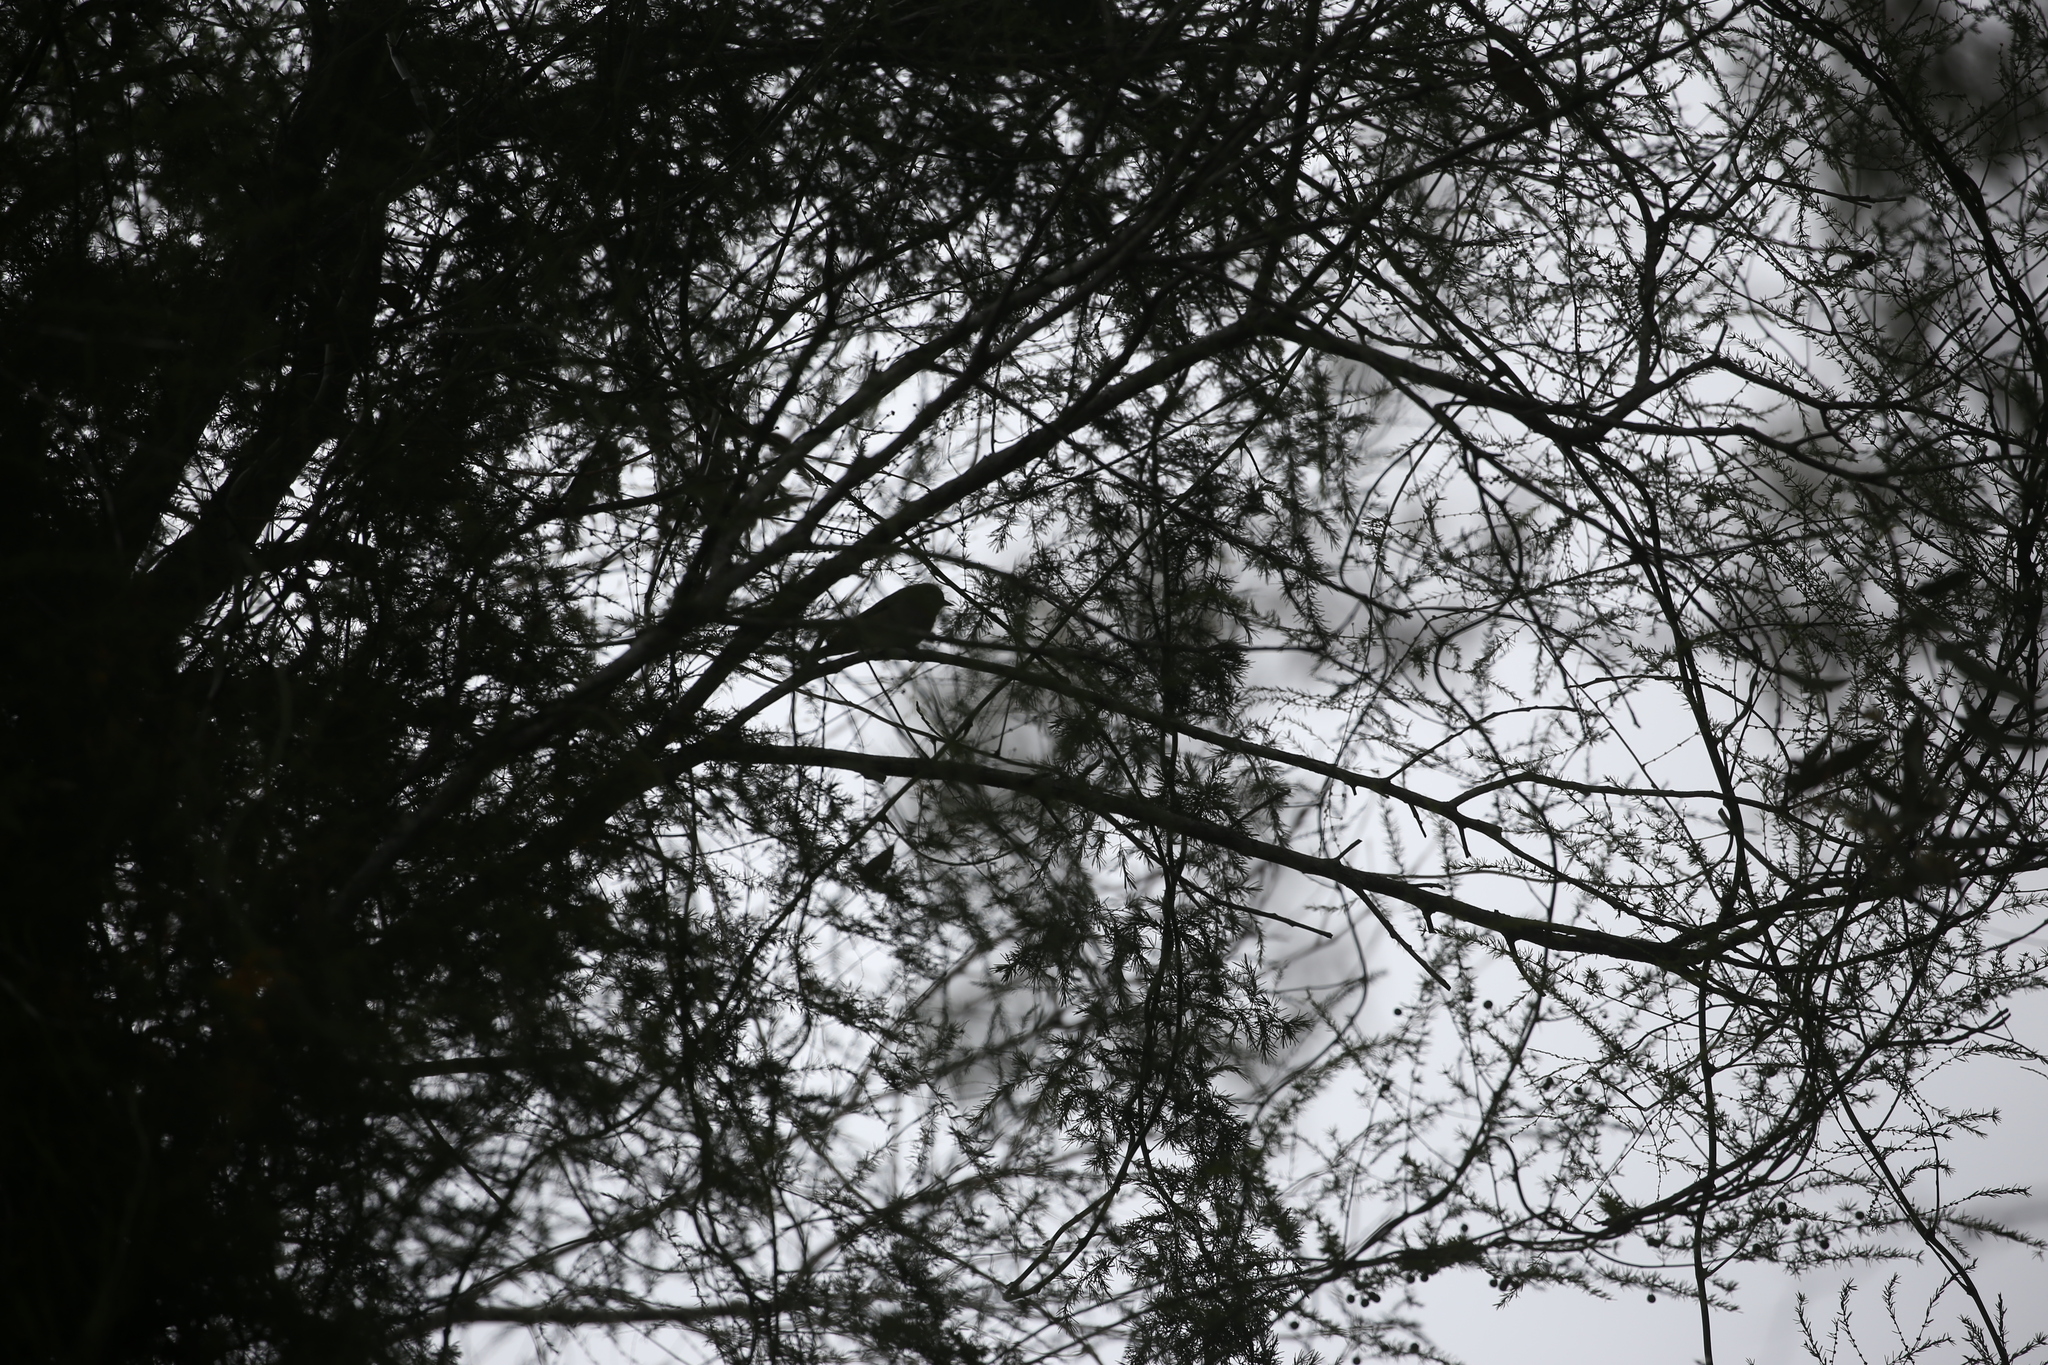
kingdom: Animalia
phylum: Chordata
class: Aves
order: Passeriformes
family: Zosteropidae
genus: Zosterops
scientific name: Zosterops lateralis
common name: Silvereye
